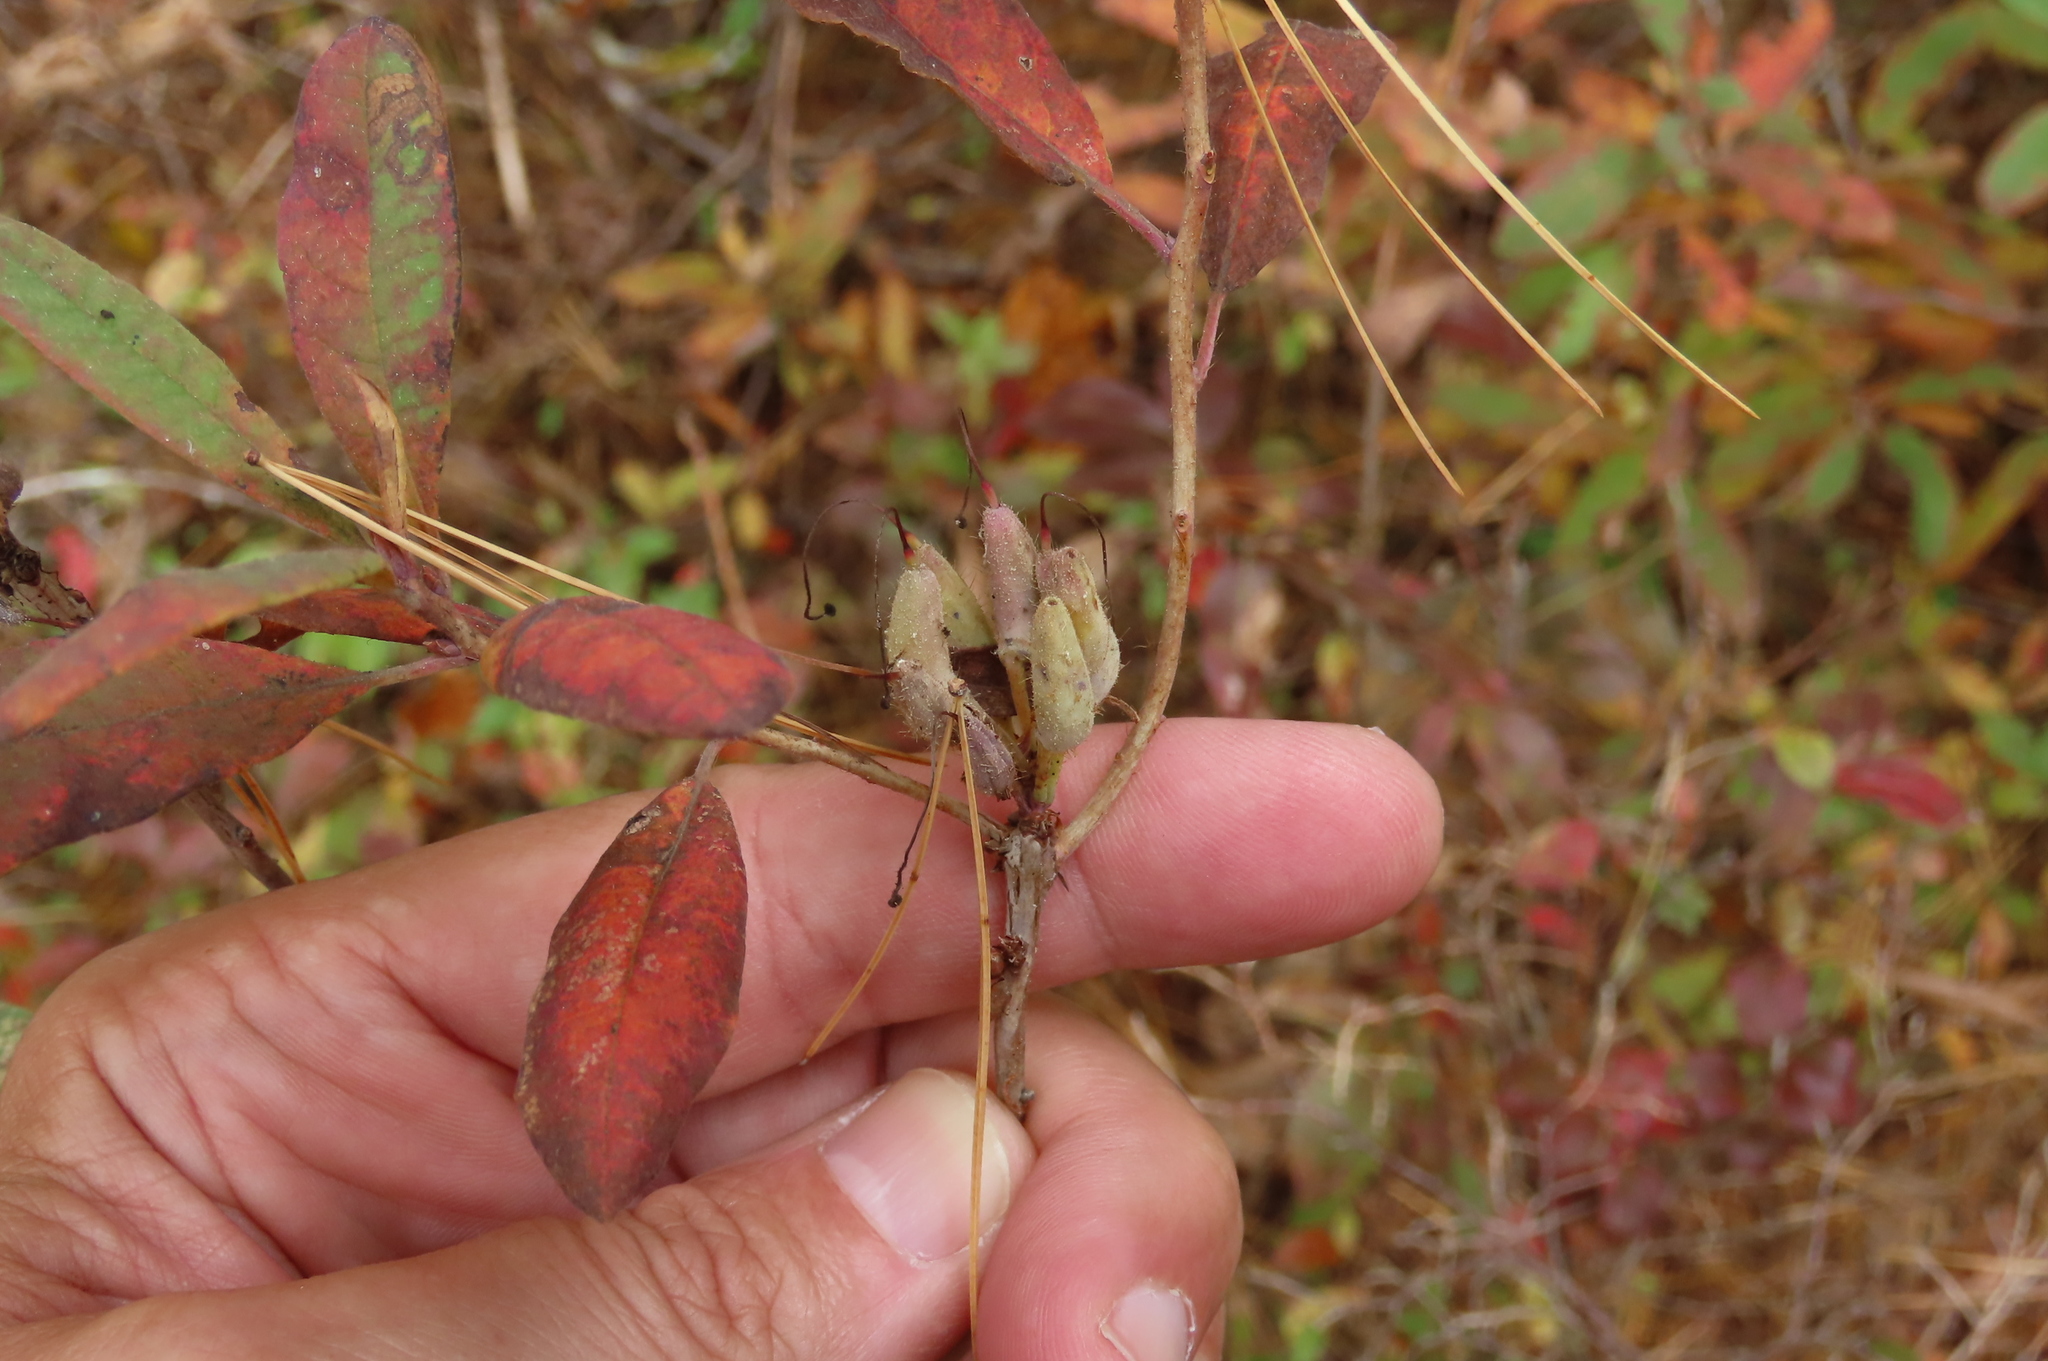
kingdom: Plantae
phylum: Tracheophyta
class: Magnoliopsida
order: Ericales
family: Ericaceae
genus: Rhododendron
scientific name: Rhododendron canadense
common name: Rhodora
